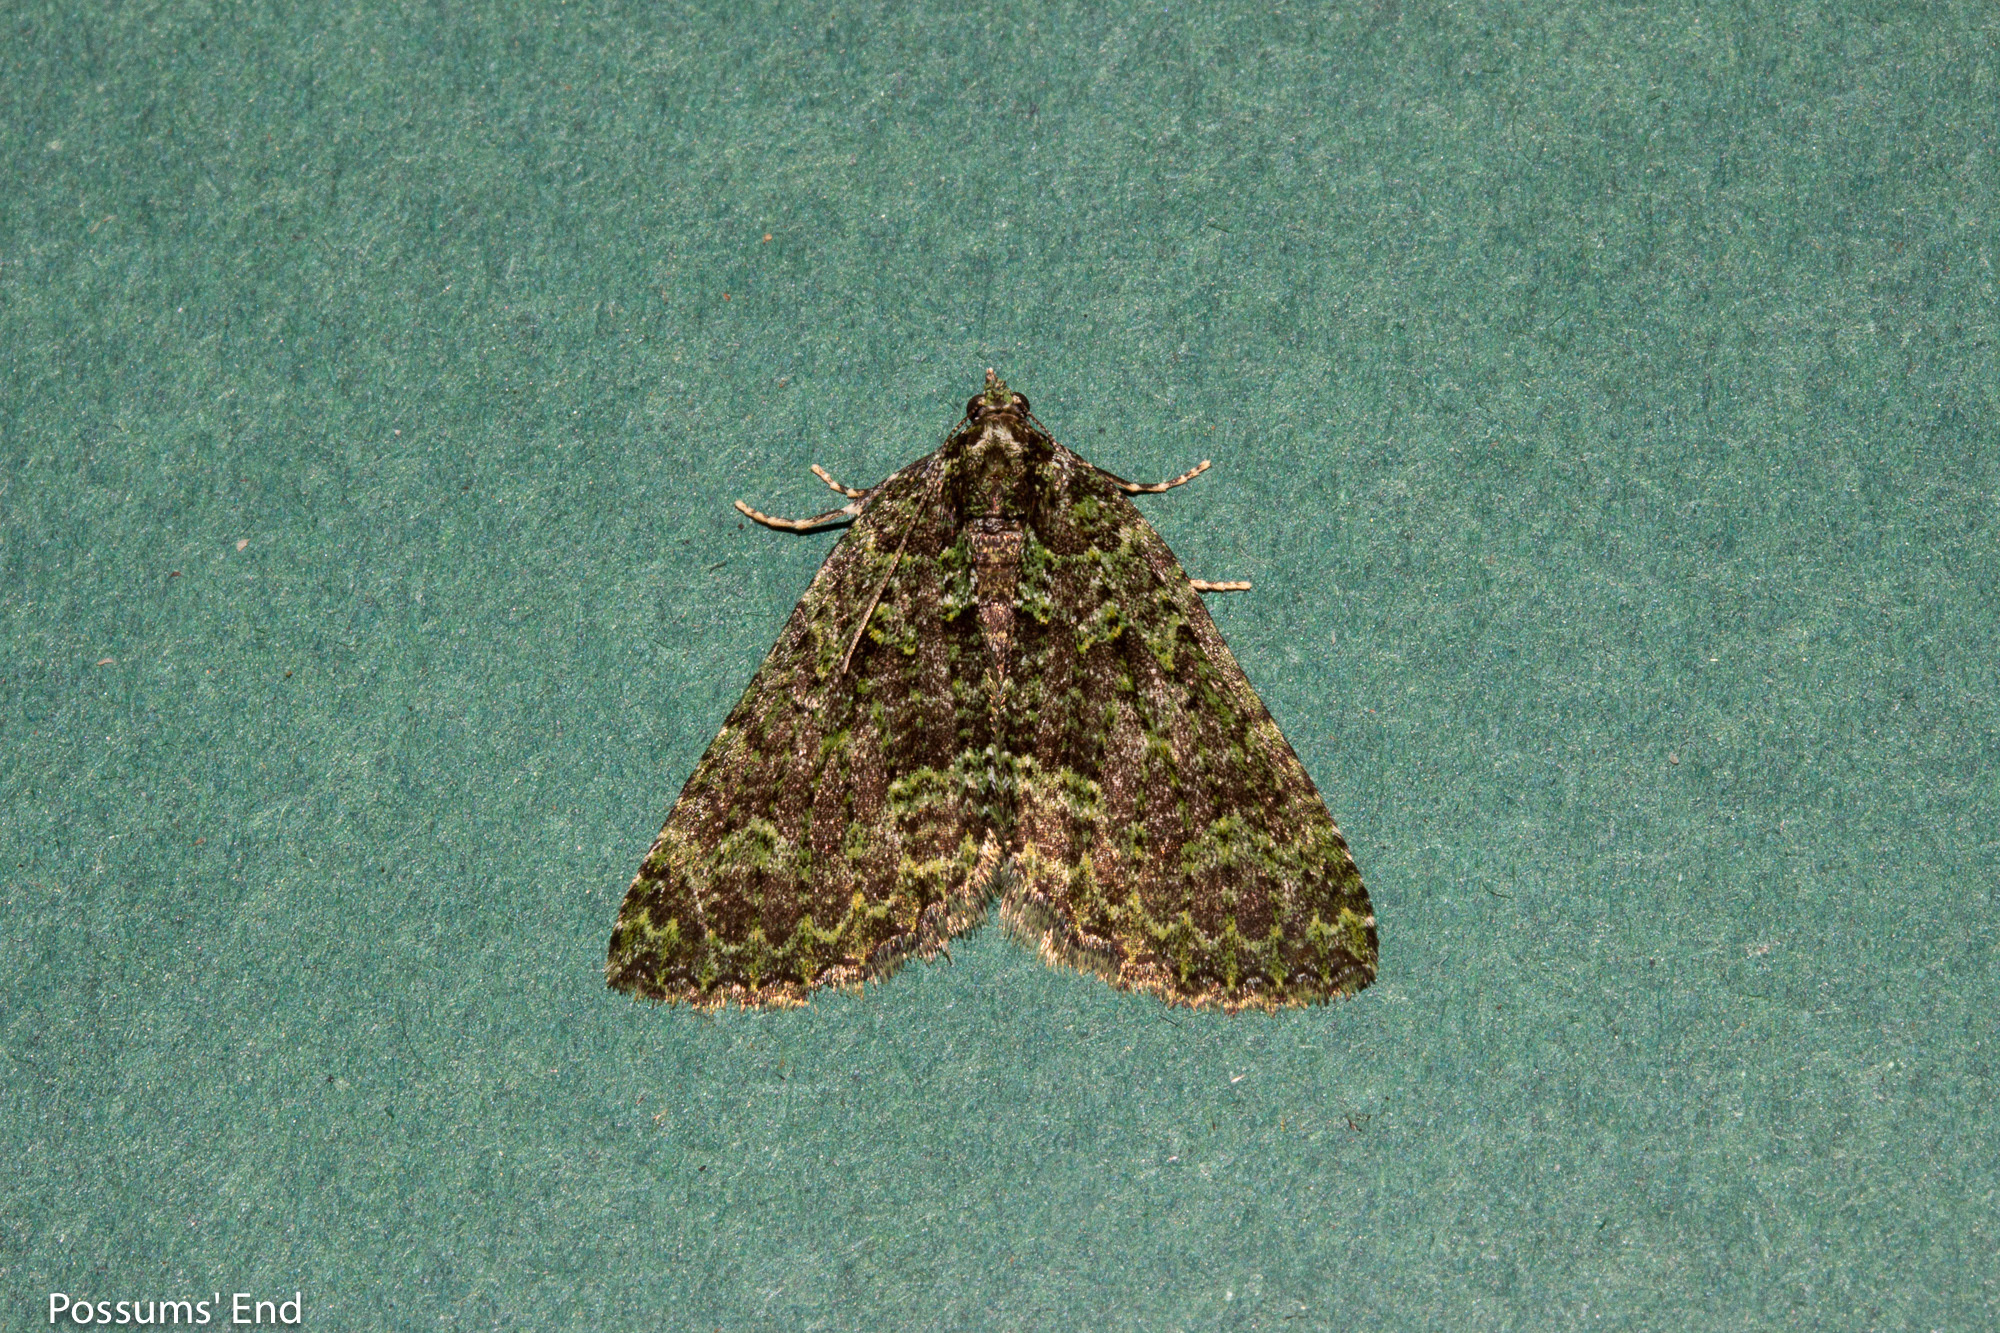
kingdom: Animalia
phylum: Arthropoda
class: Insecta
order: Lepidoptera
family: Geometridae
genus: Austrocidaria
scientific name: Austrocidaria callichlora
